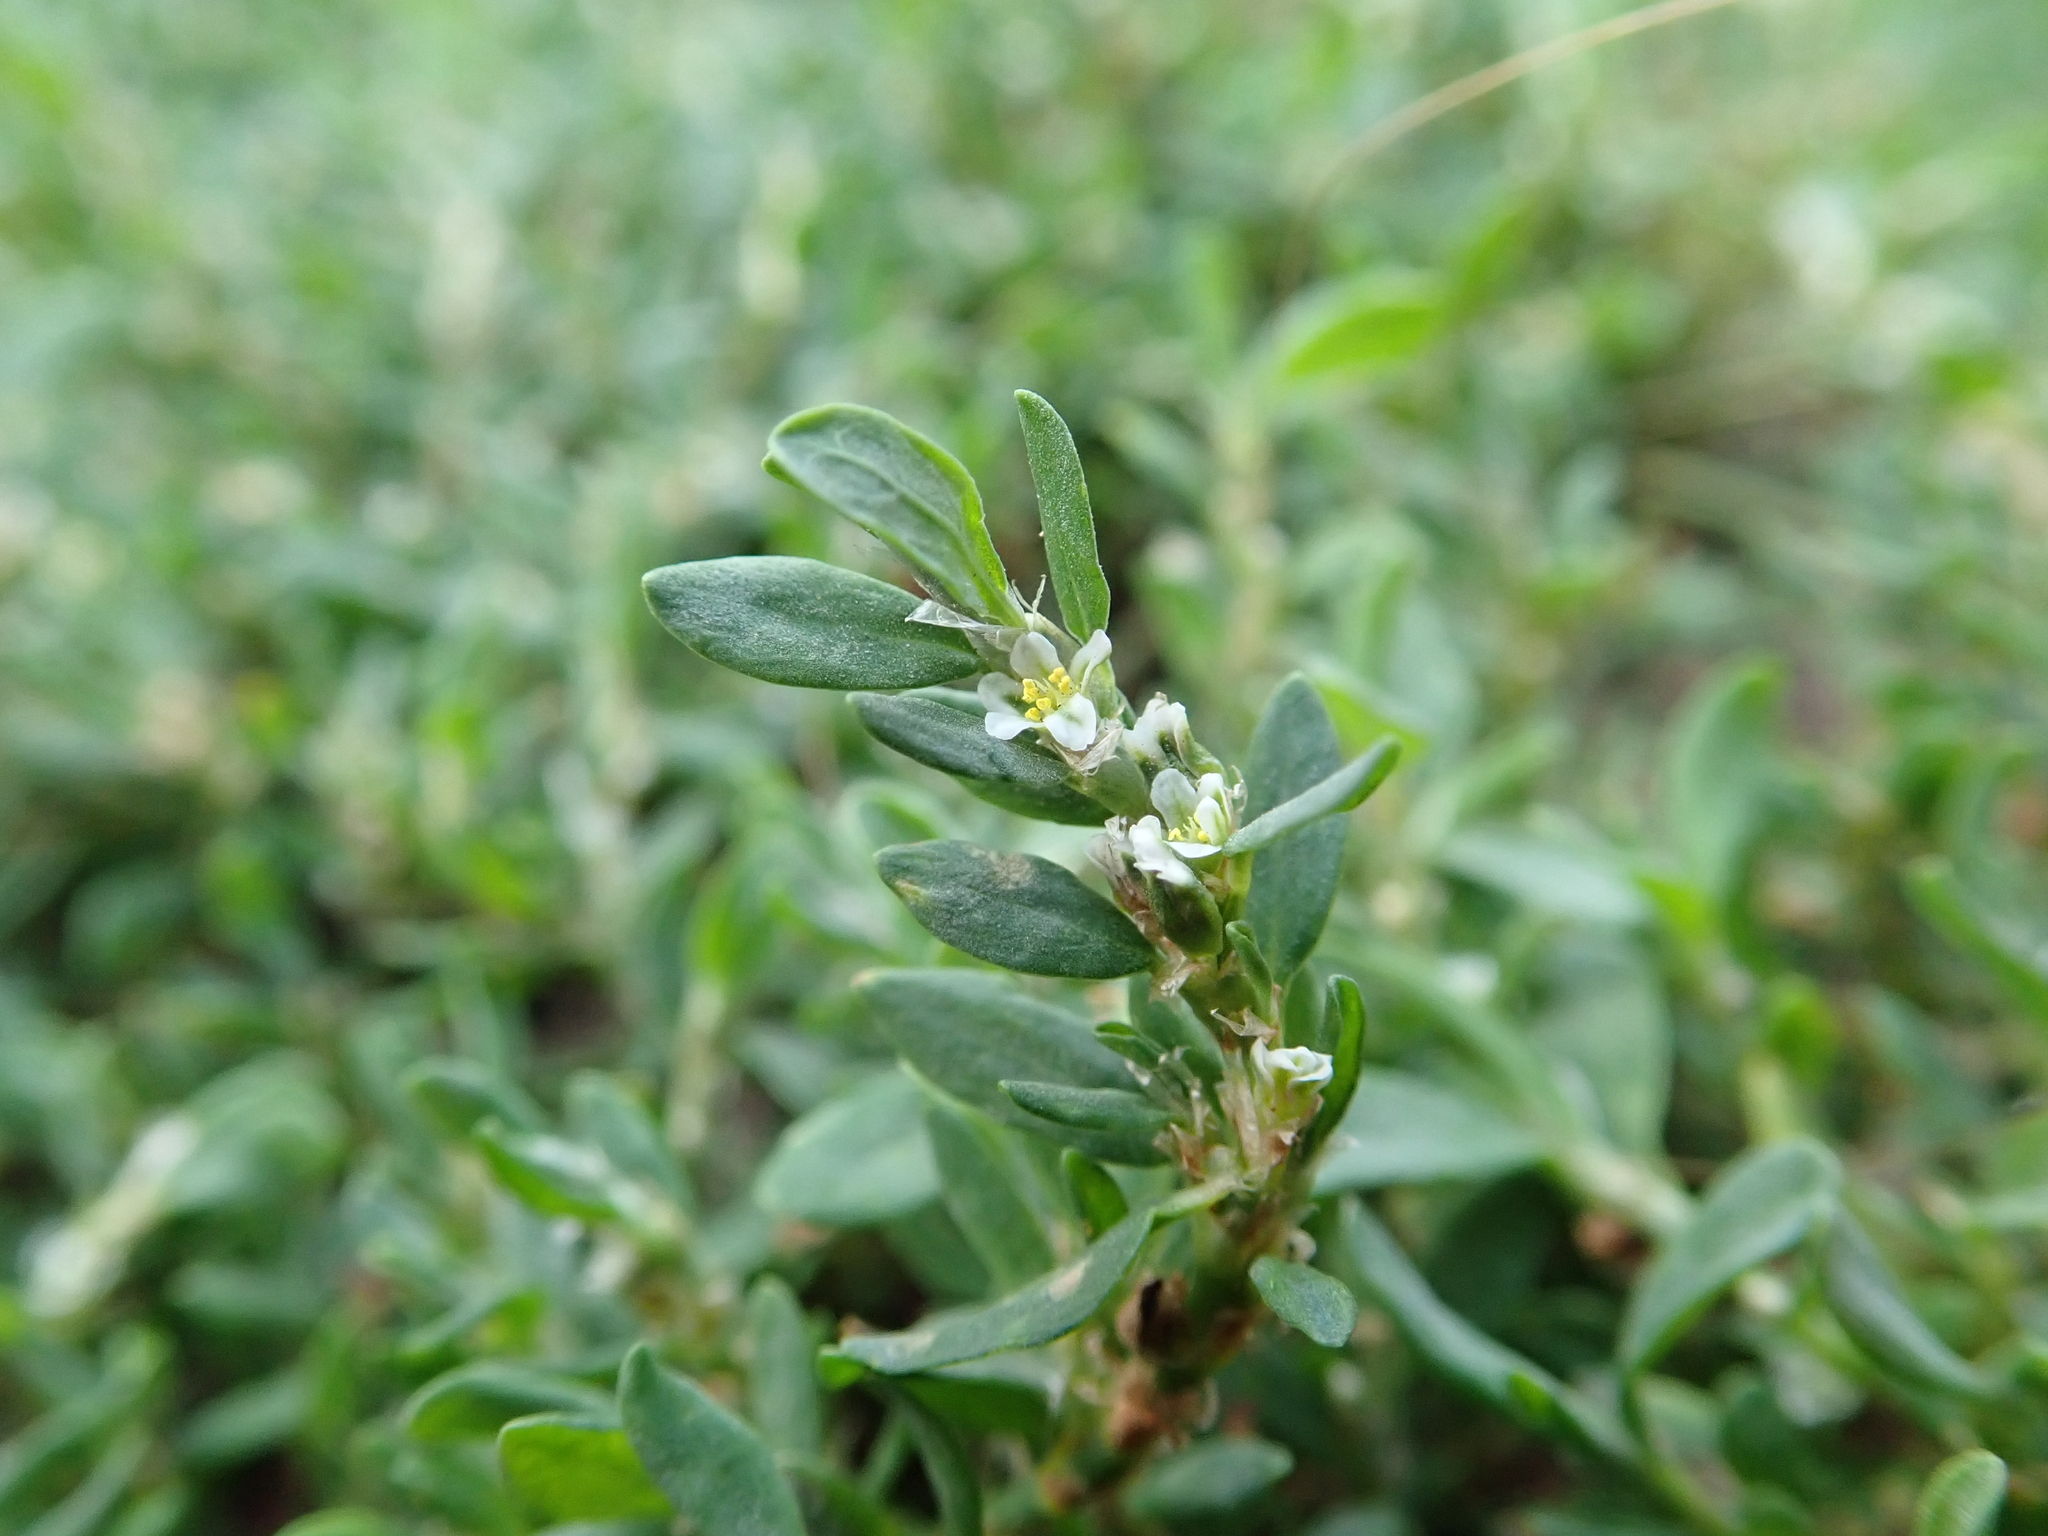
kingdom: Plantae
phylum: Tracheophyta
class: Magnoliopsida
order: Caryophyllales
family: Polygonaceae
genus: Polygonum
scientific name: Polygonum aviculare
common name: Prostrate knotweed
